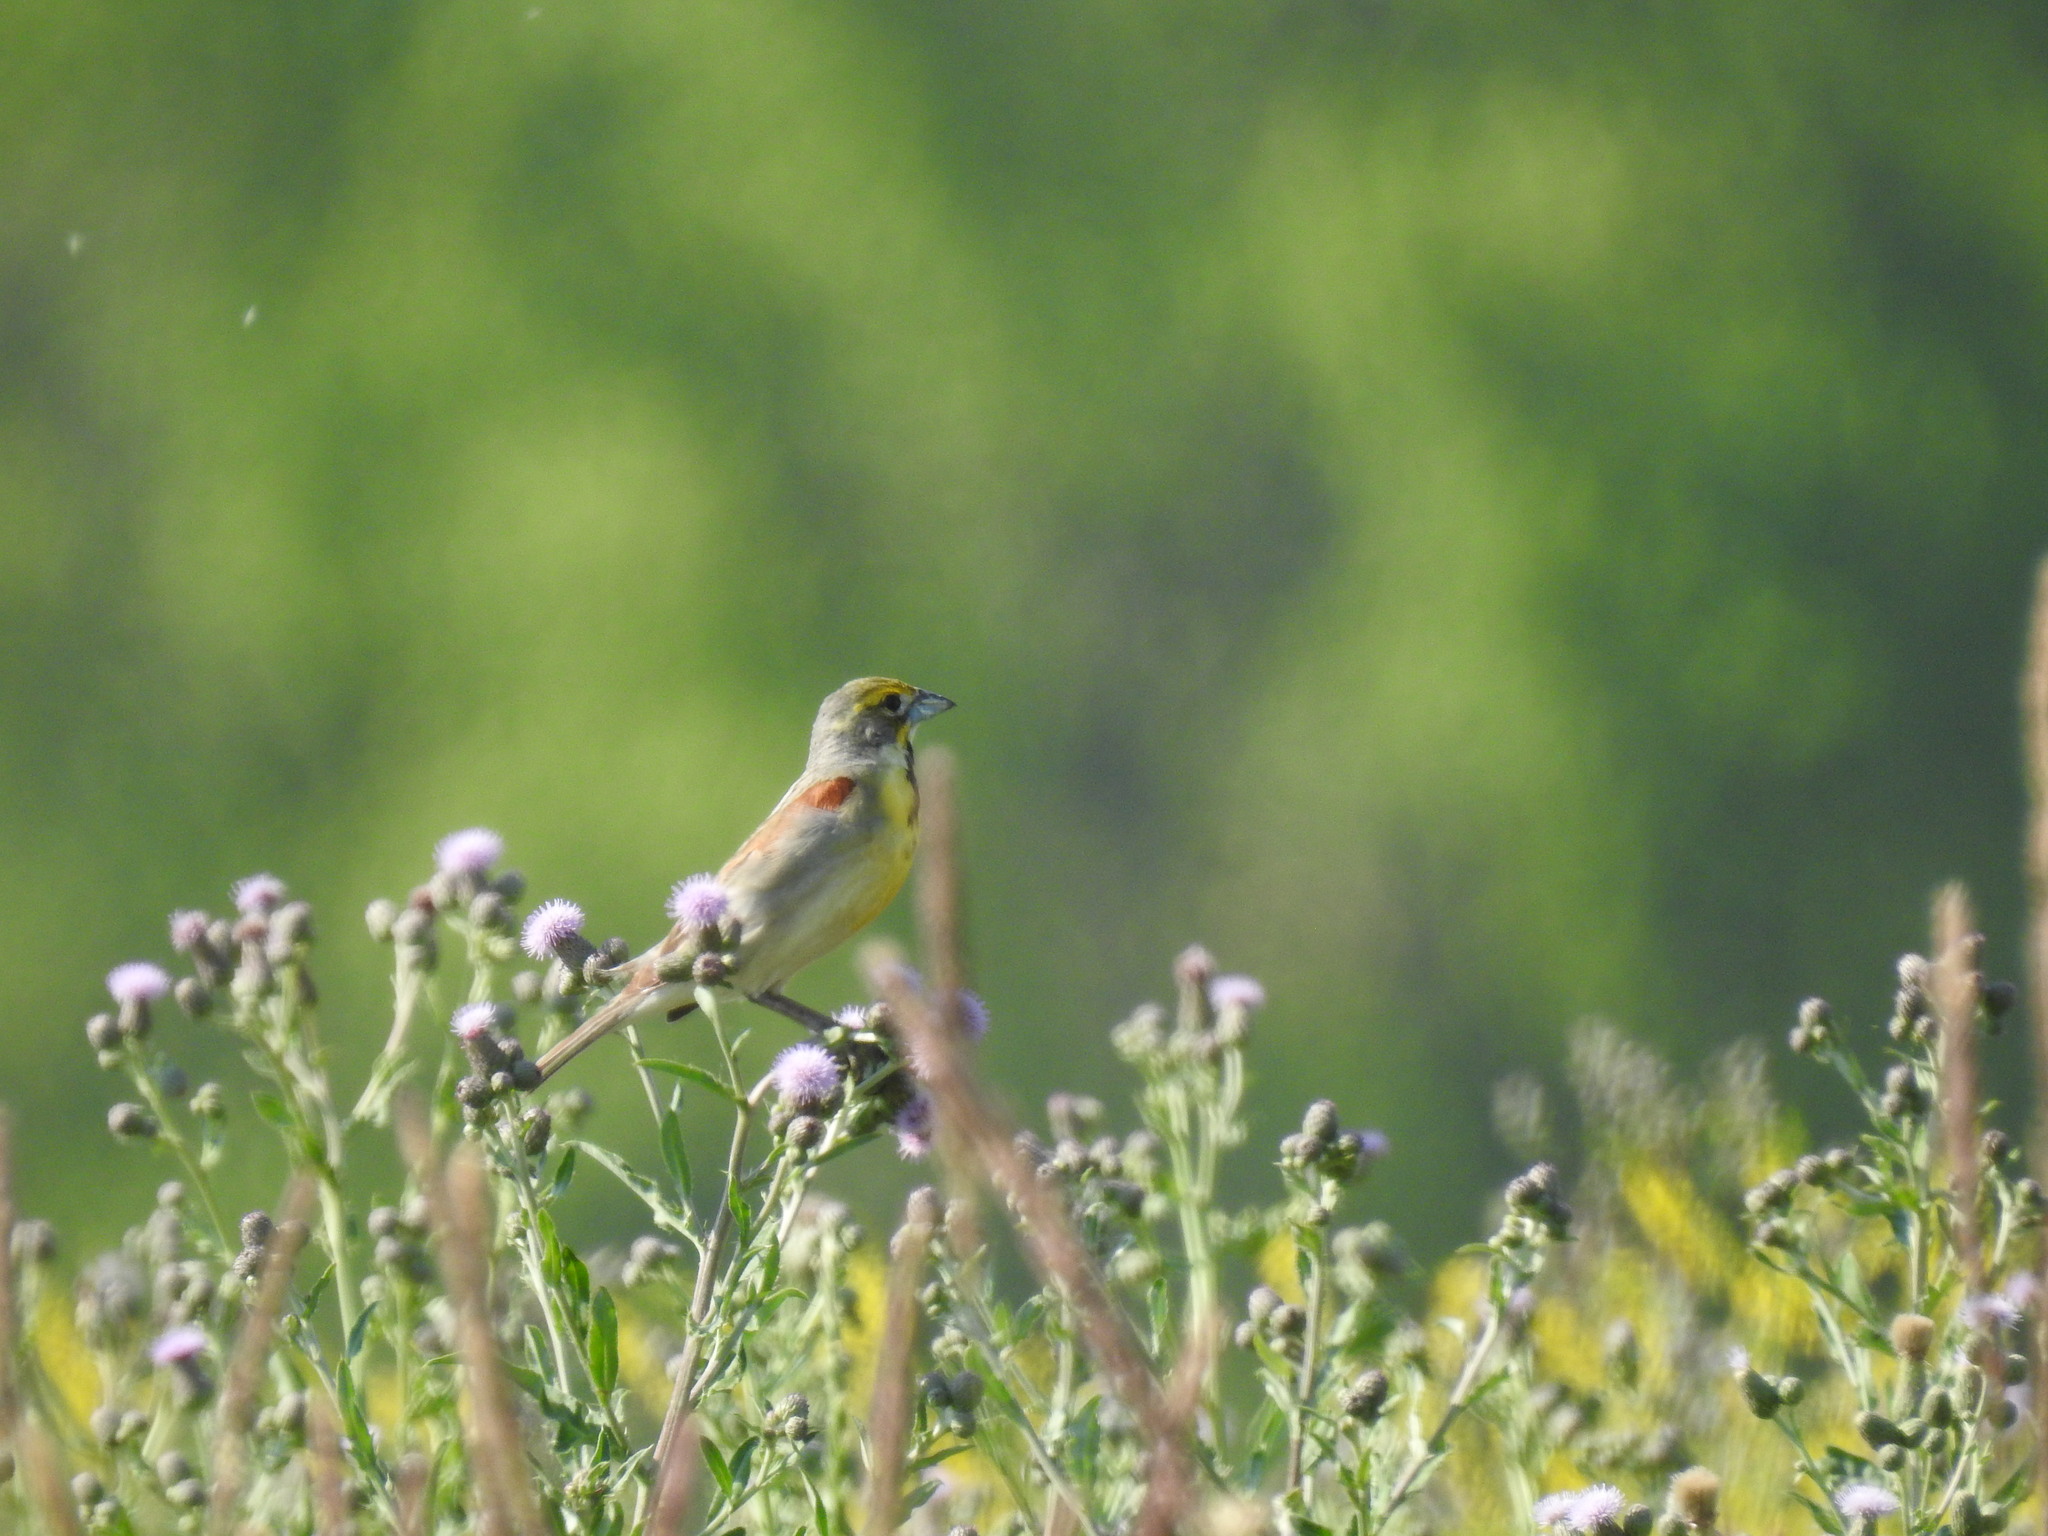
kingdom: Animalia
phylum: Chordata
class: Aves
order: Passeriformes
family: Cardinalidae
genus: Spiza
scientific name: Spiza americana
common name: Dickcissel
